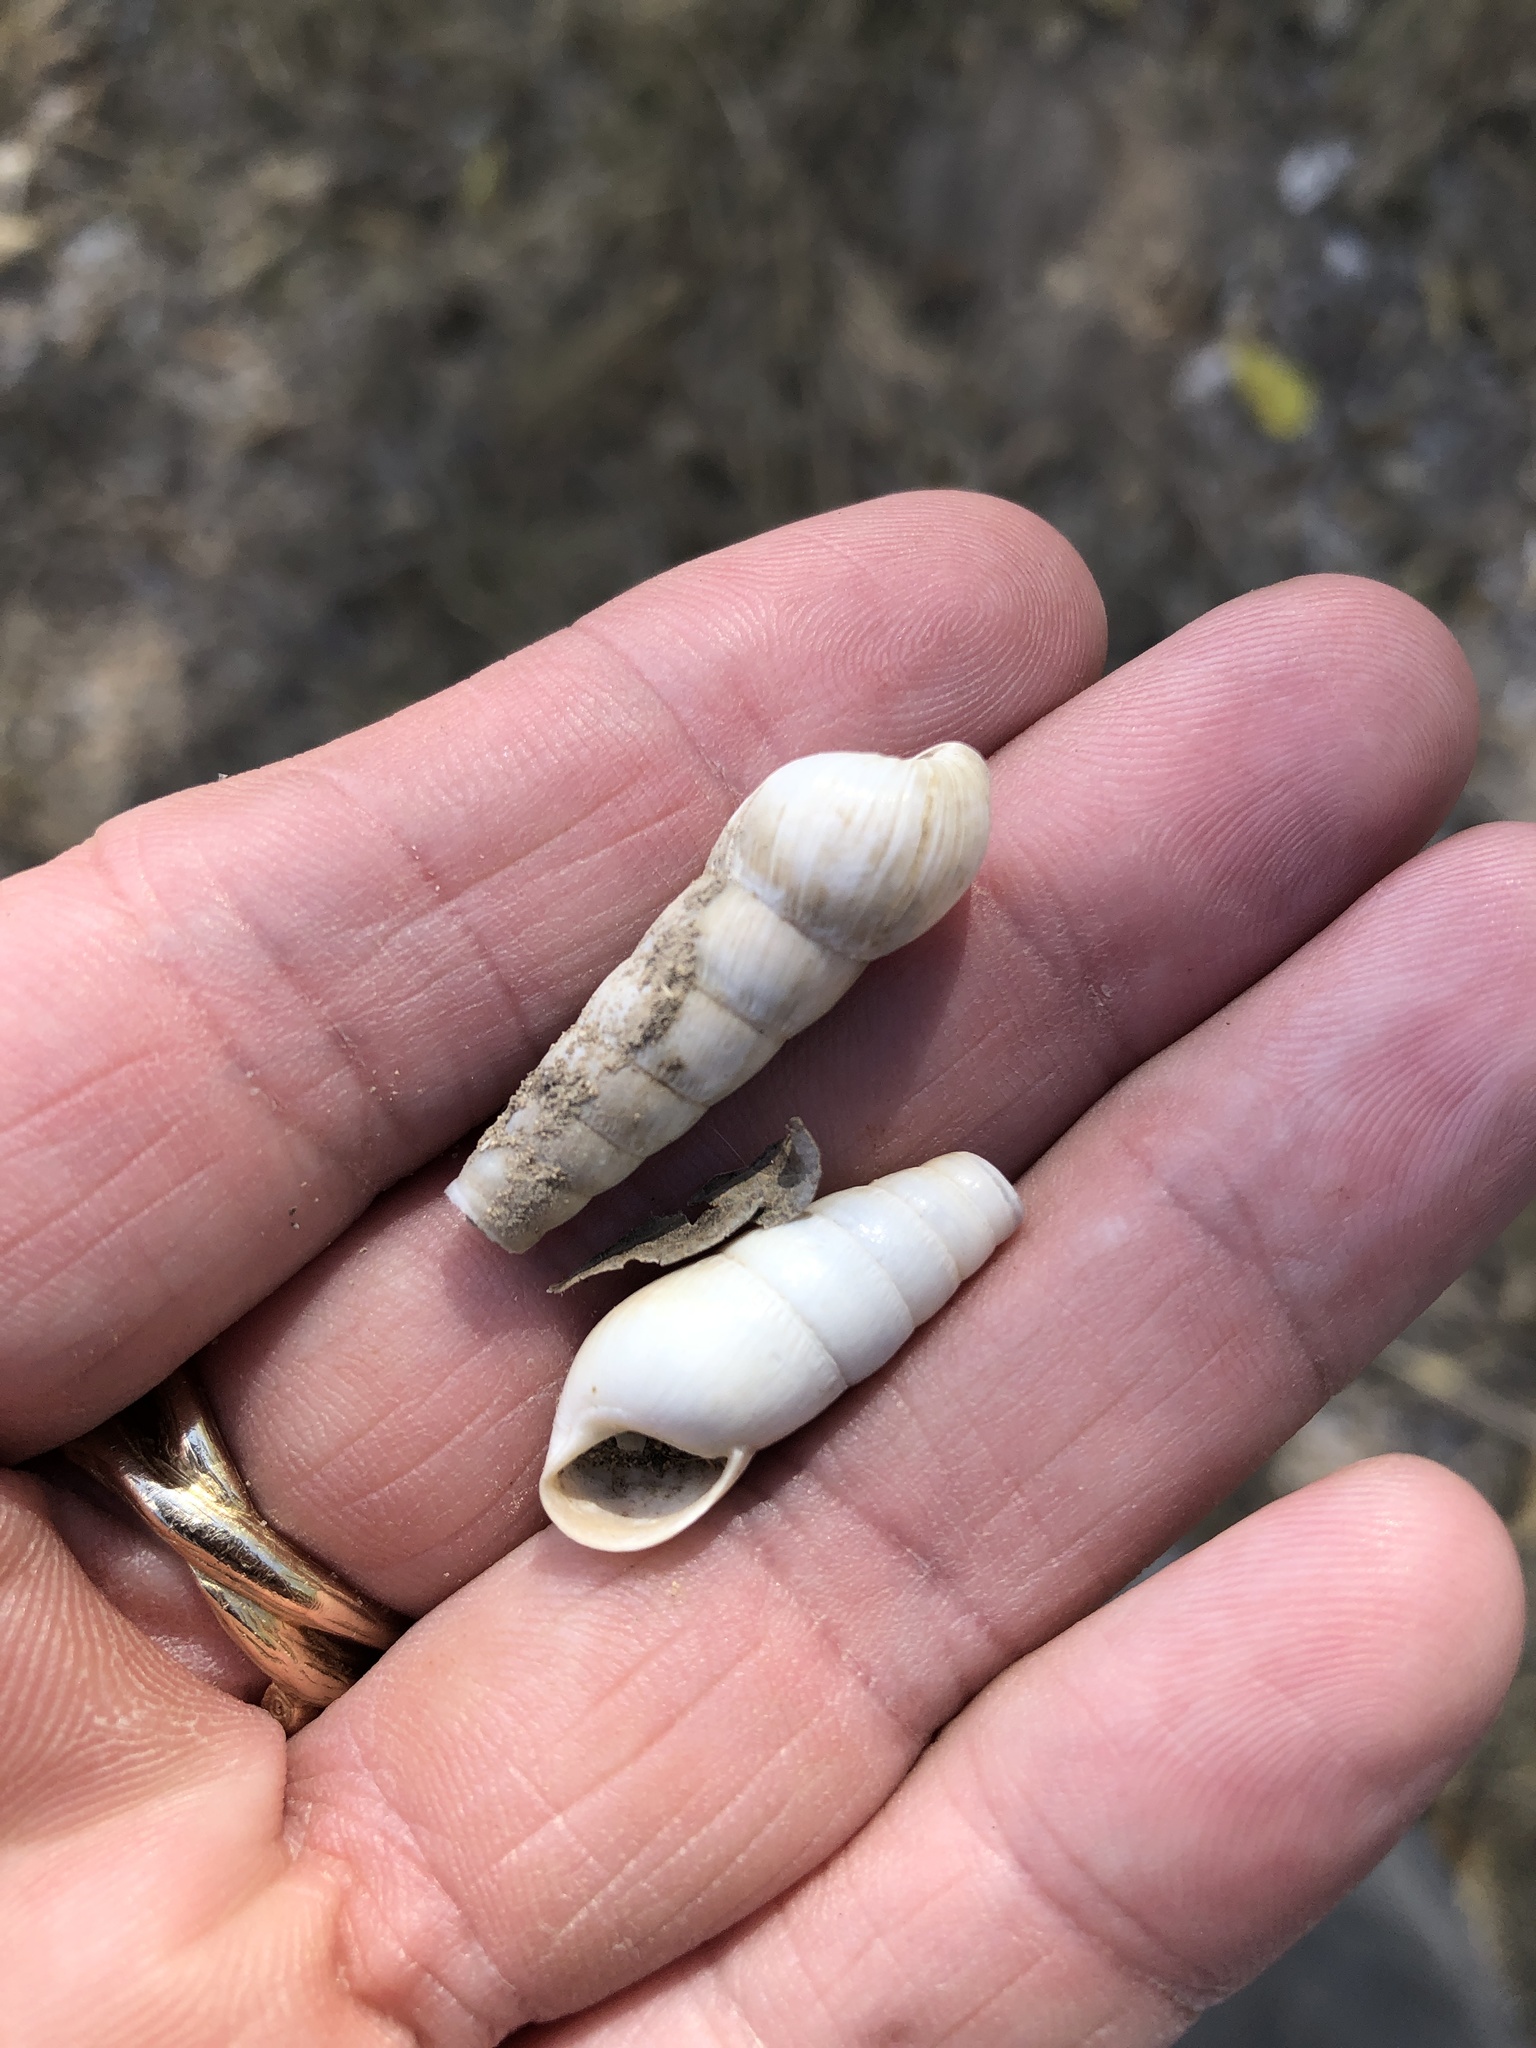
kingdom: Animalia
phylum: Mollusca
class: Gastropoda
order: Stylommatophora
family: Achatinidae
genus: Rumina
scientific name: Rumina decollata
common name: Decollate snail
